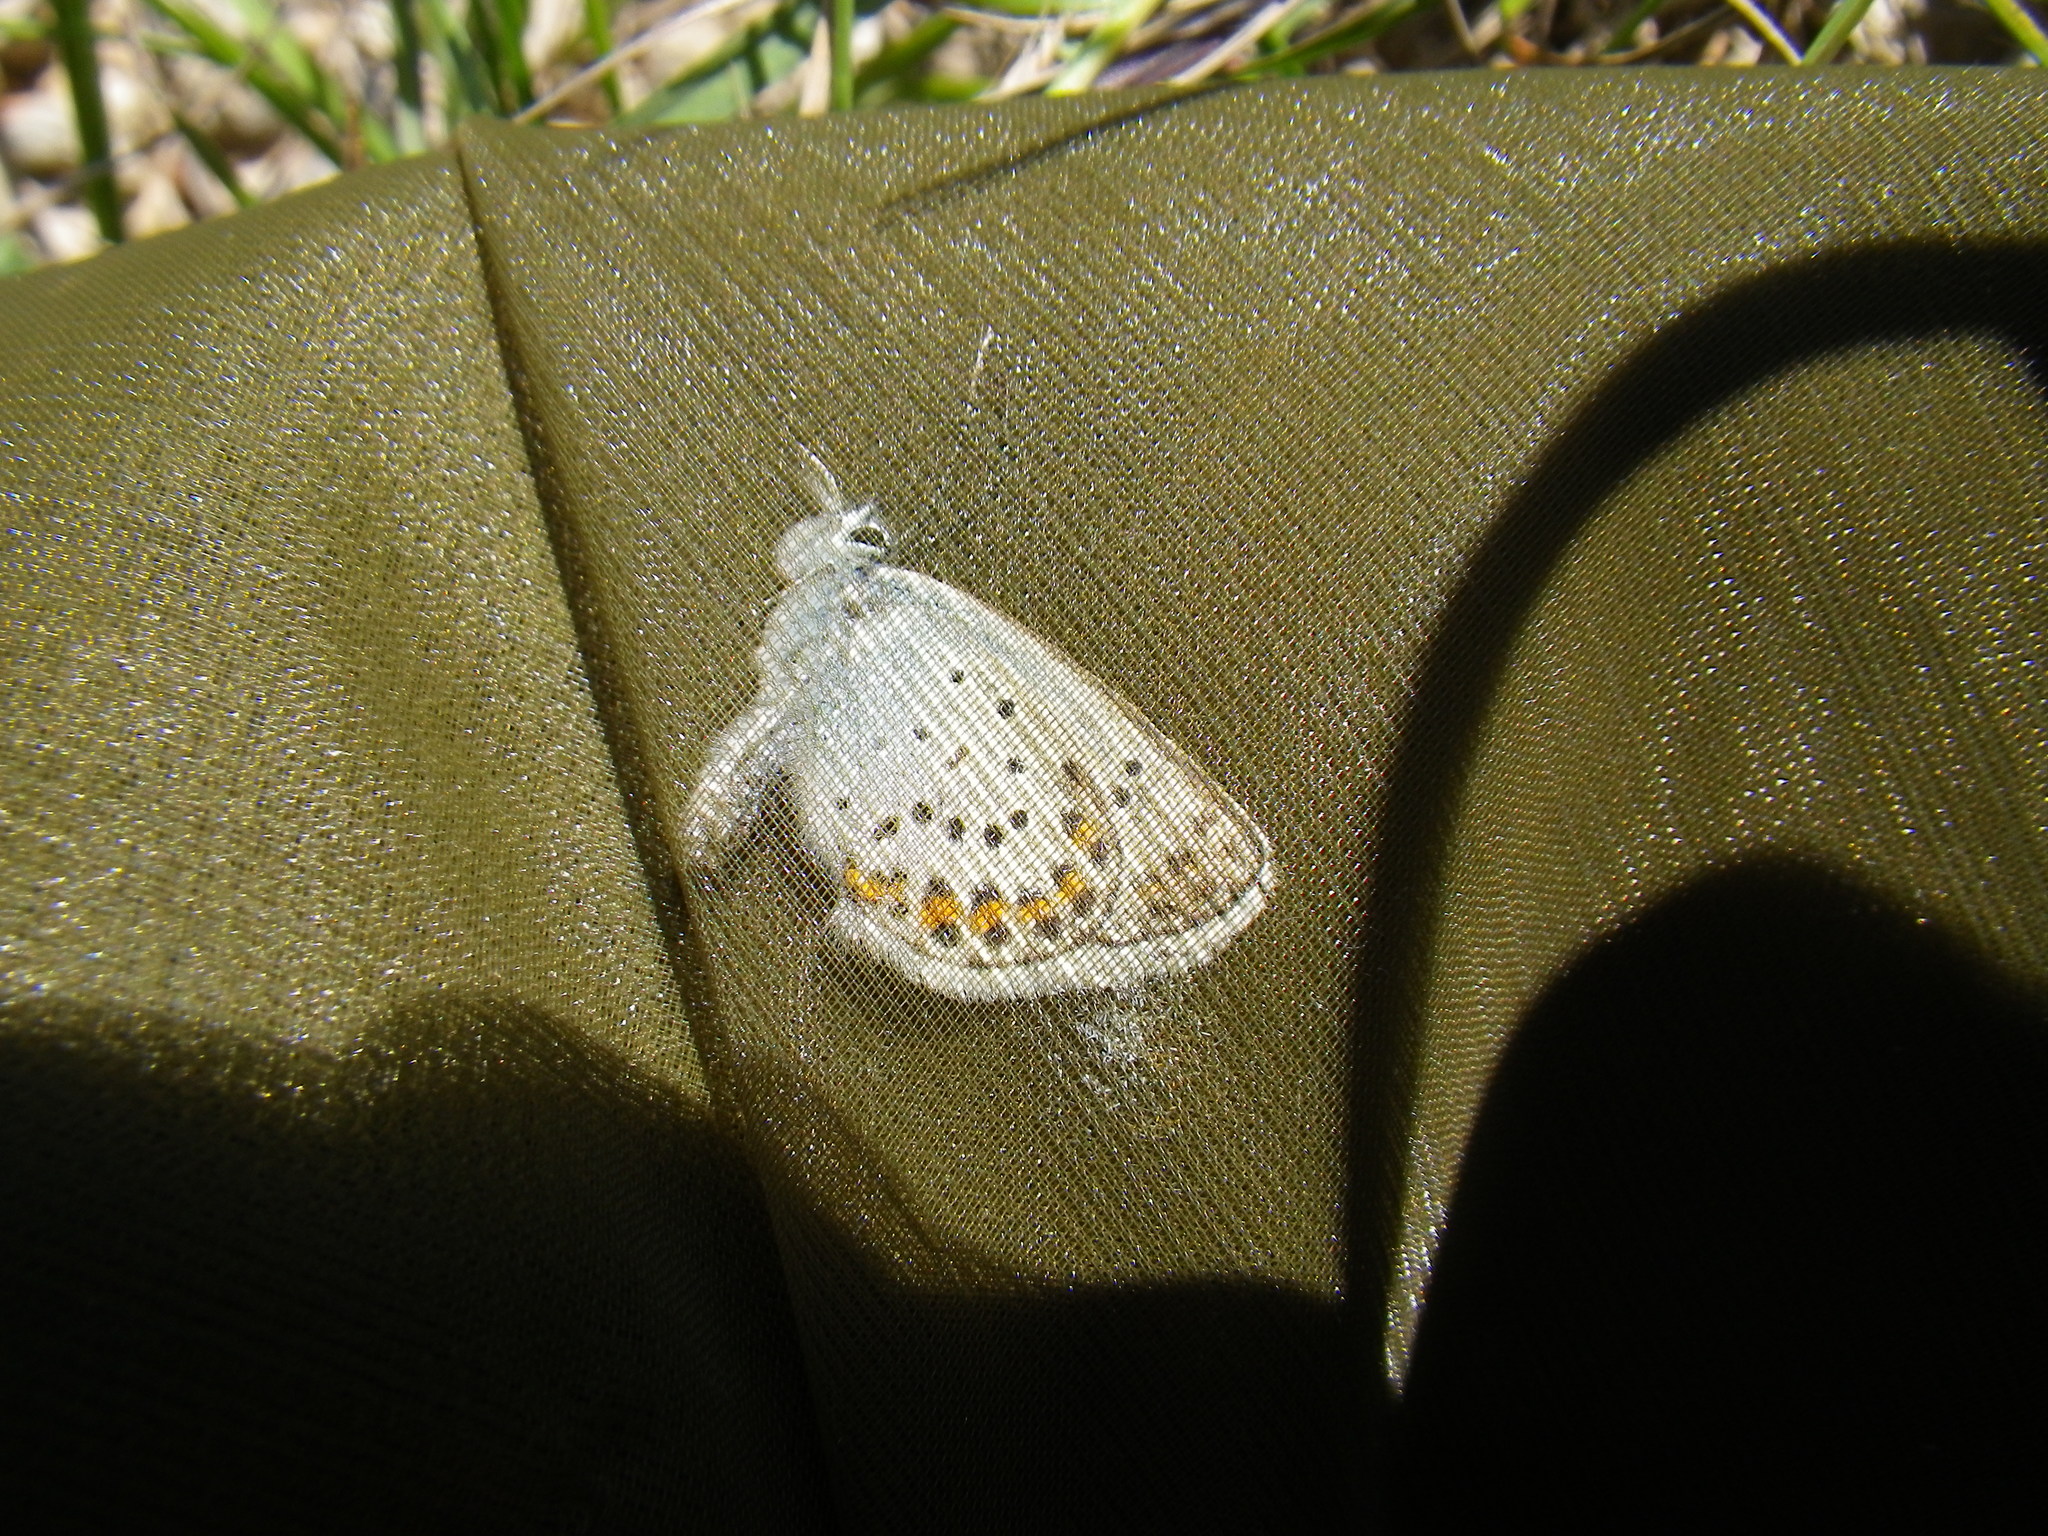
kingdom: Animalia
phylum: Arthropoda
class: Insecta
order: Lepidoptera
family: Lycaenidae
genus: Plebejus
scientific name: Plebejus argus
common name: Silver-studded blue
